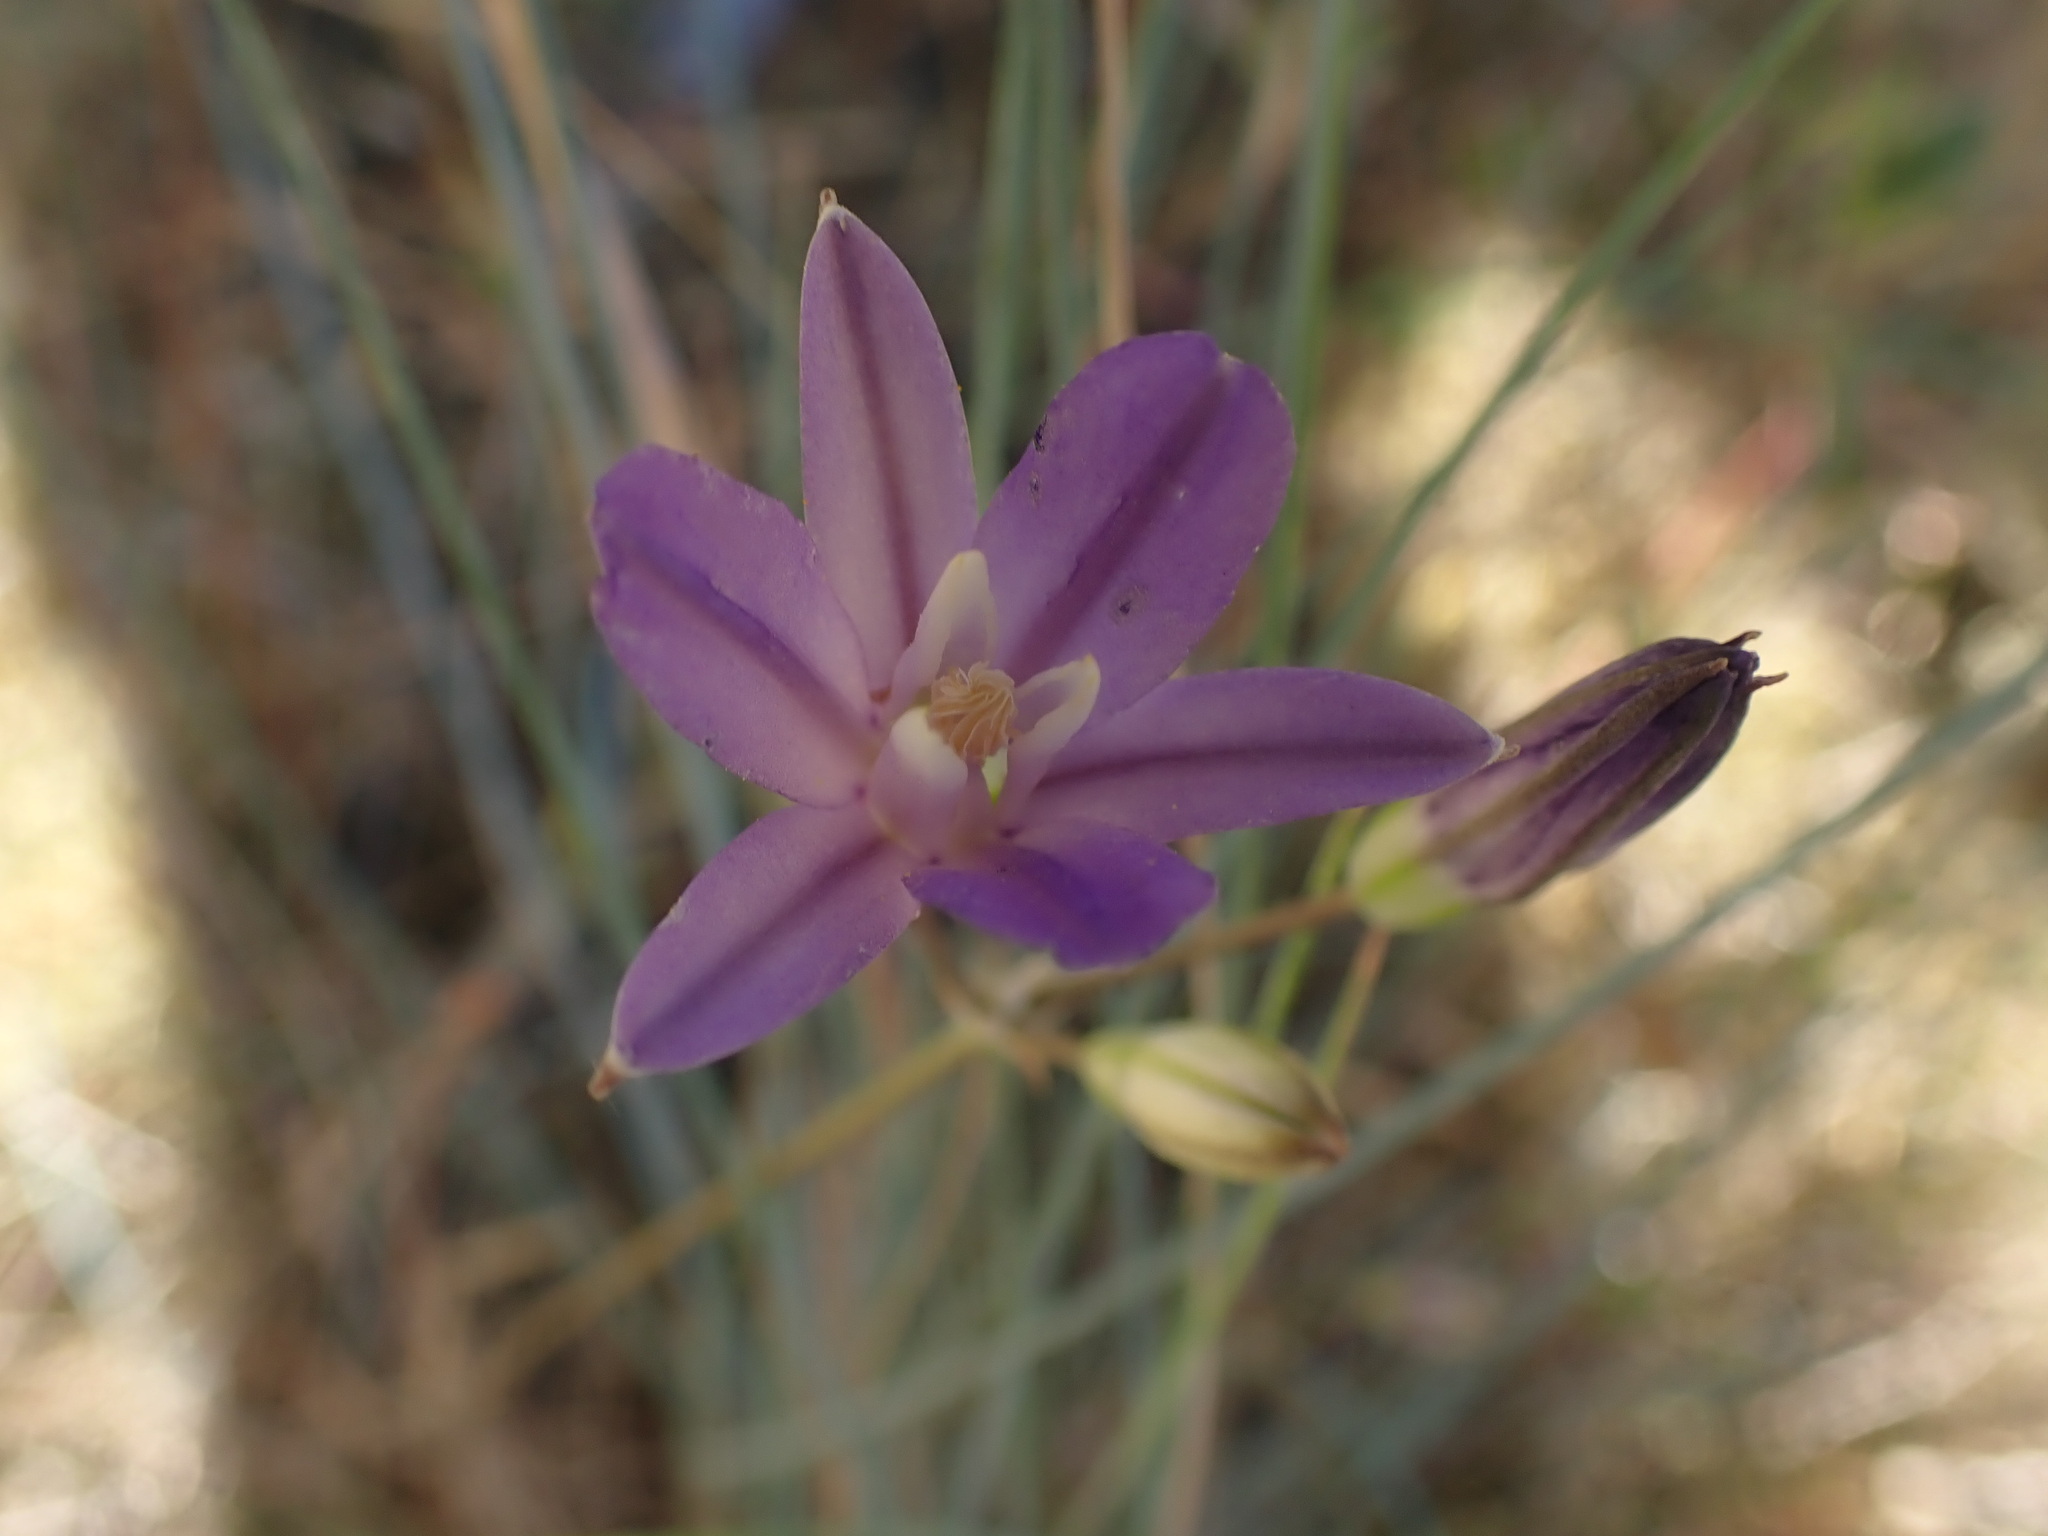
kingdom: Plantae
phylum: Tracheophyta
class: Liliopsida
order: Asparagales
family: Asparagaceae
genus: Brodiaea
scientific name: Brodiaea coronaria
